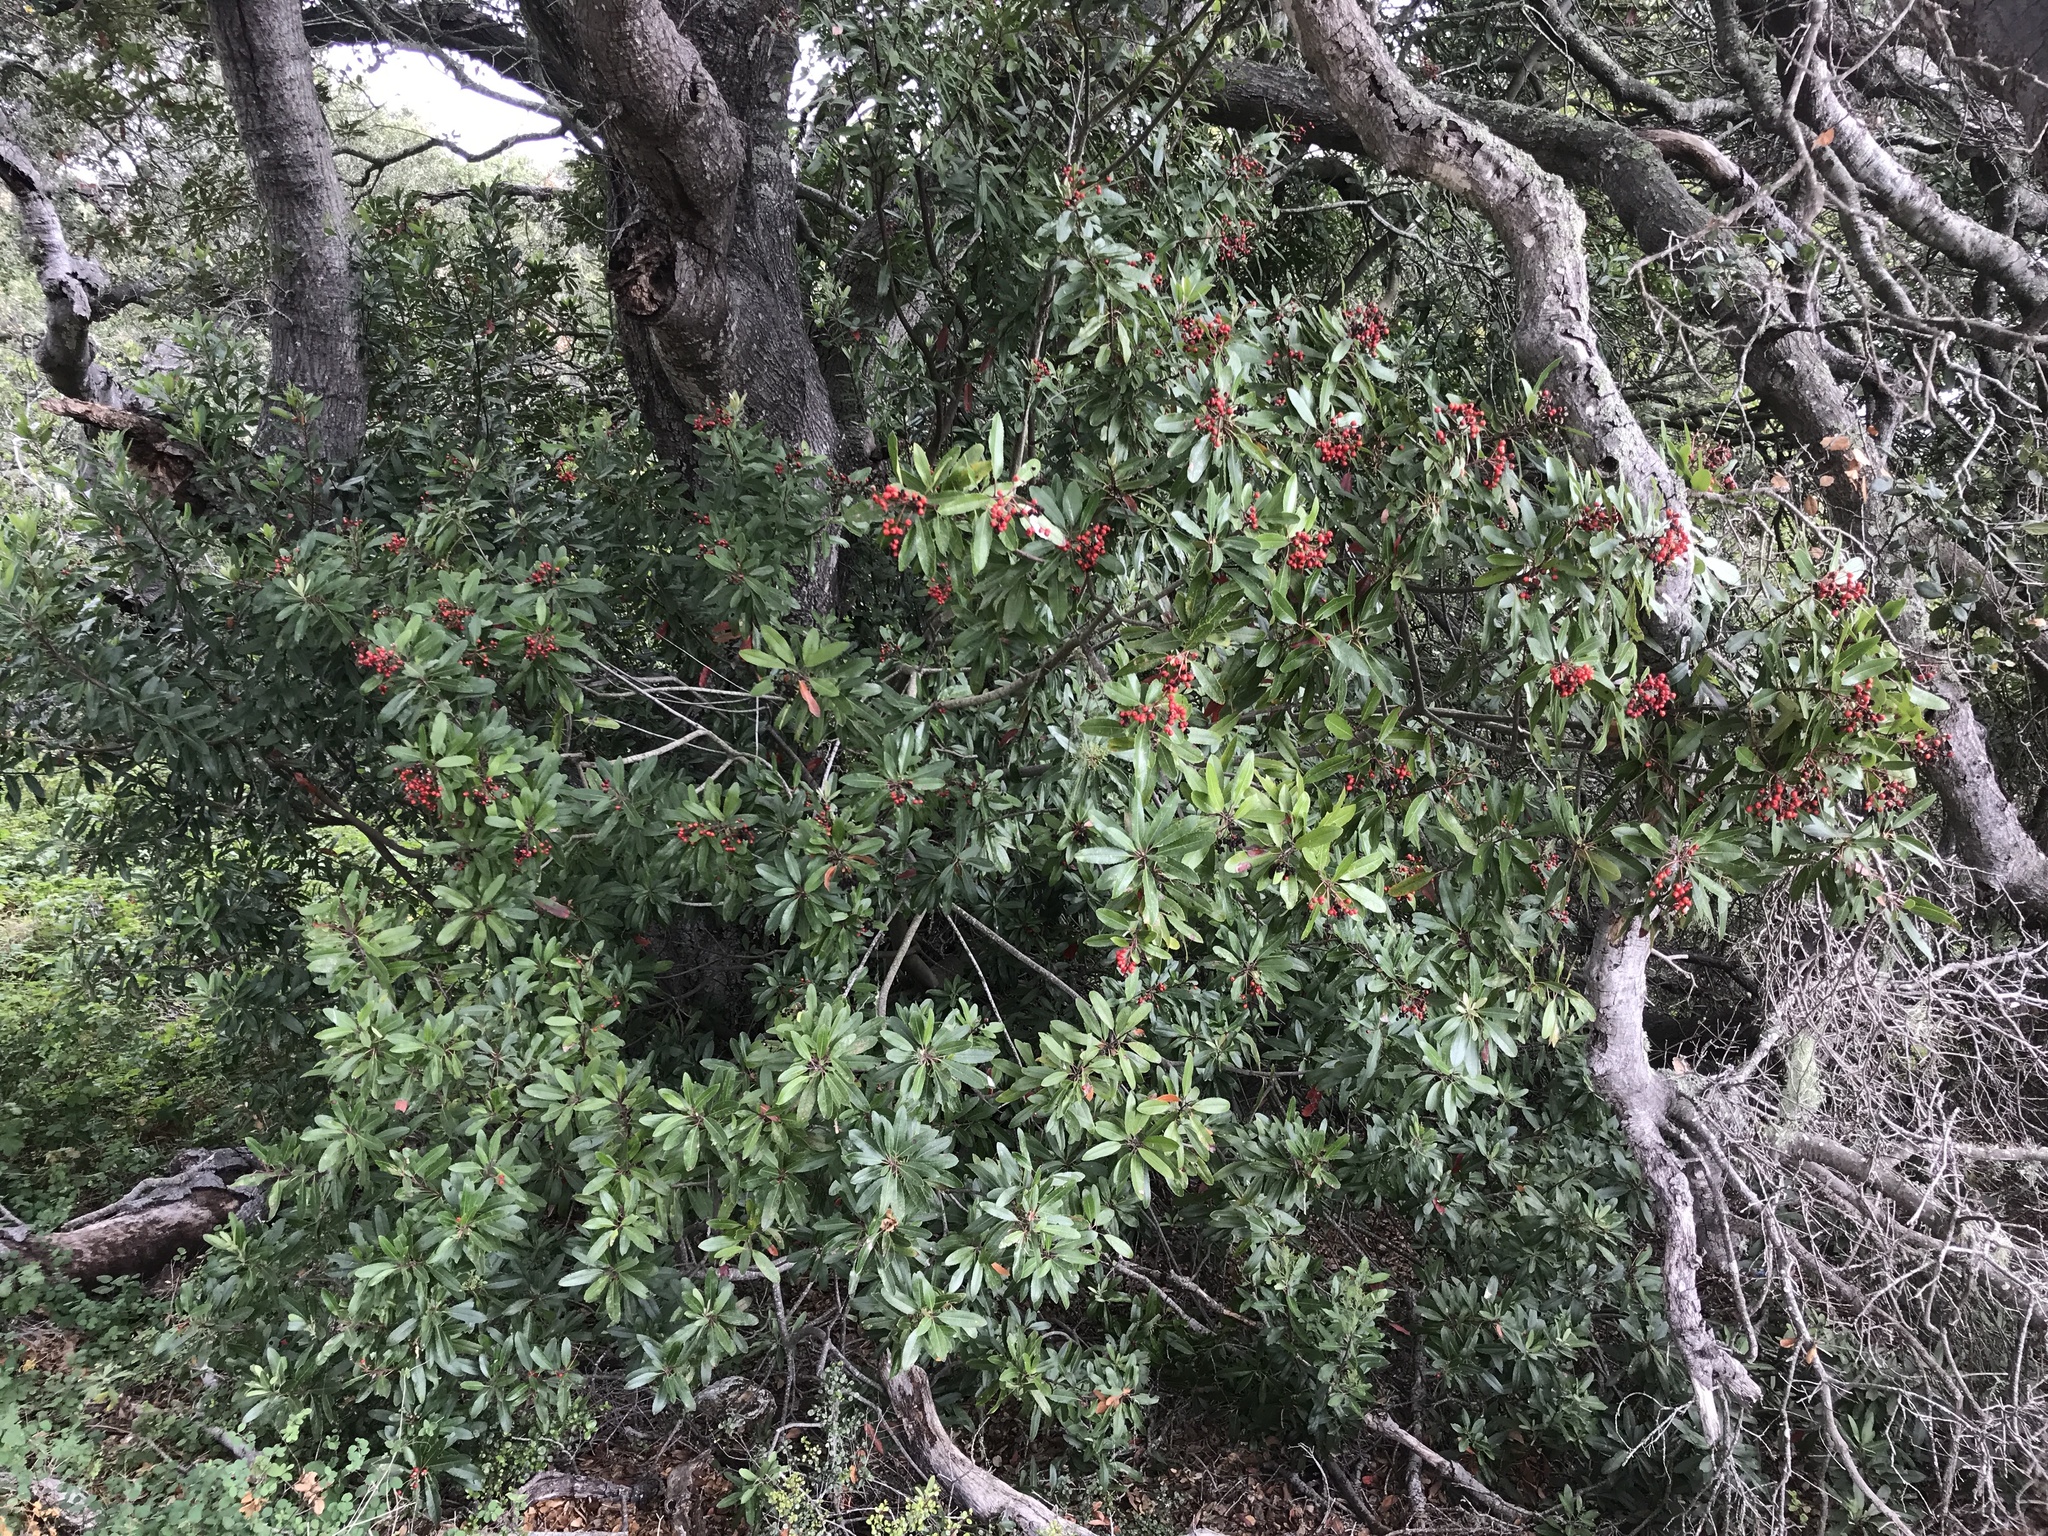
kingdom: Plantae
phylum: Tracheophyta
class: Magnoliopsida
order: Rosales
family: Rosaceae
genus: Heteromeles
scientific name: Heteromeles arbutifolia
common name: California-holly
